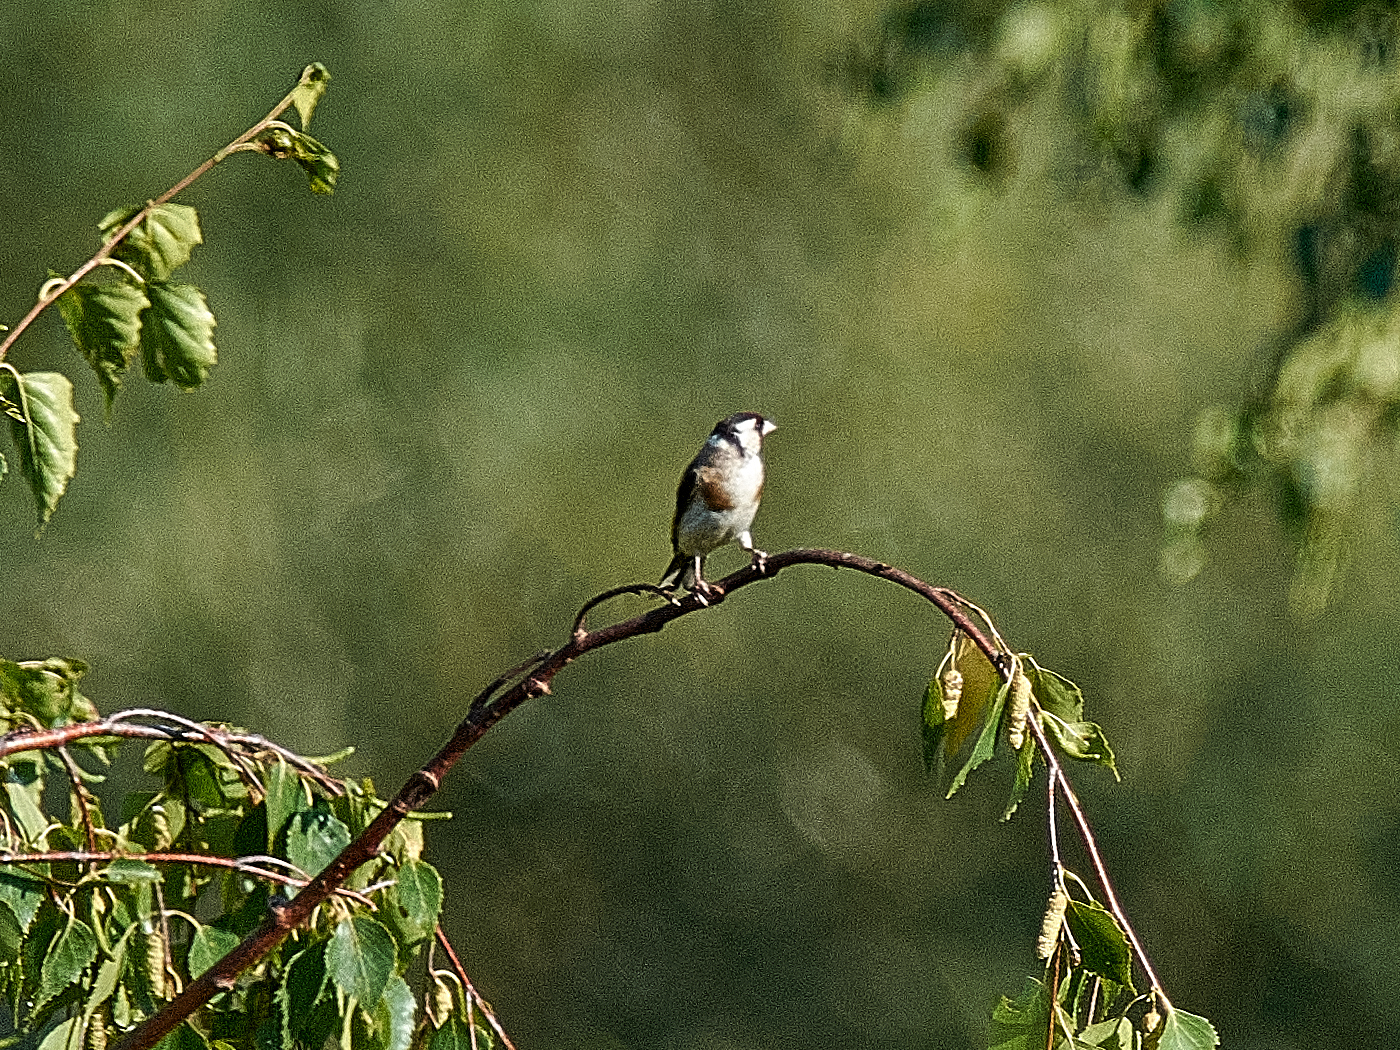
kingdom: Animalia
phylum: Chordata
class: Aves
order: Passeriformes
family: Fringillidae
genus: Carduelis
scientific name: Carduelis carduelis
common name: European goldfinch
